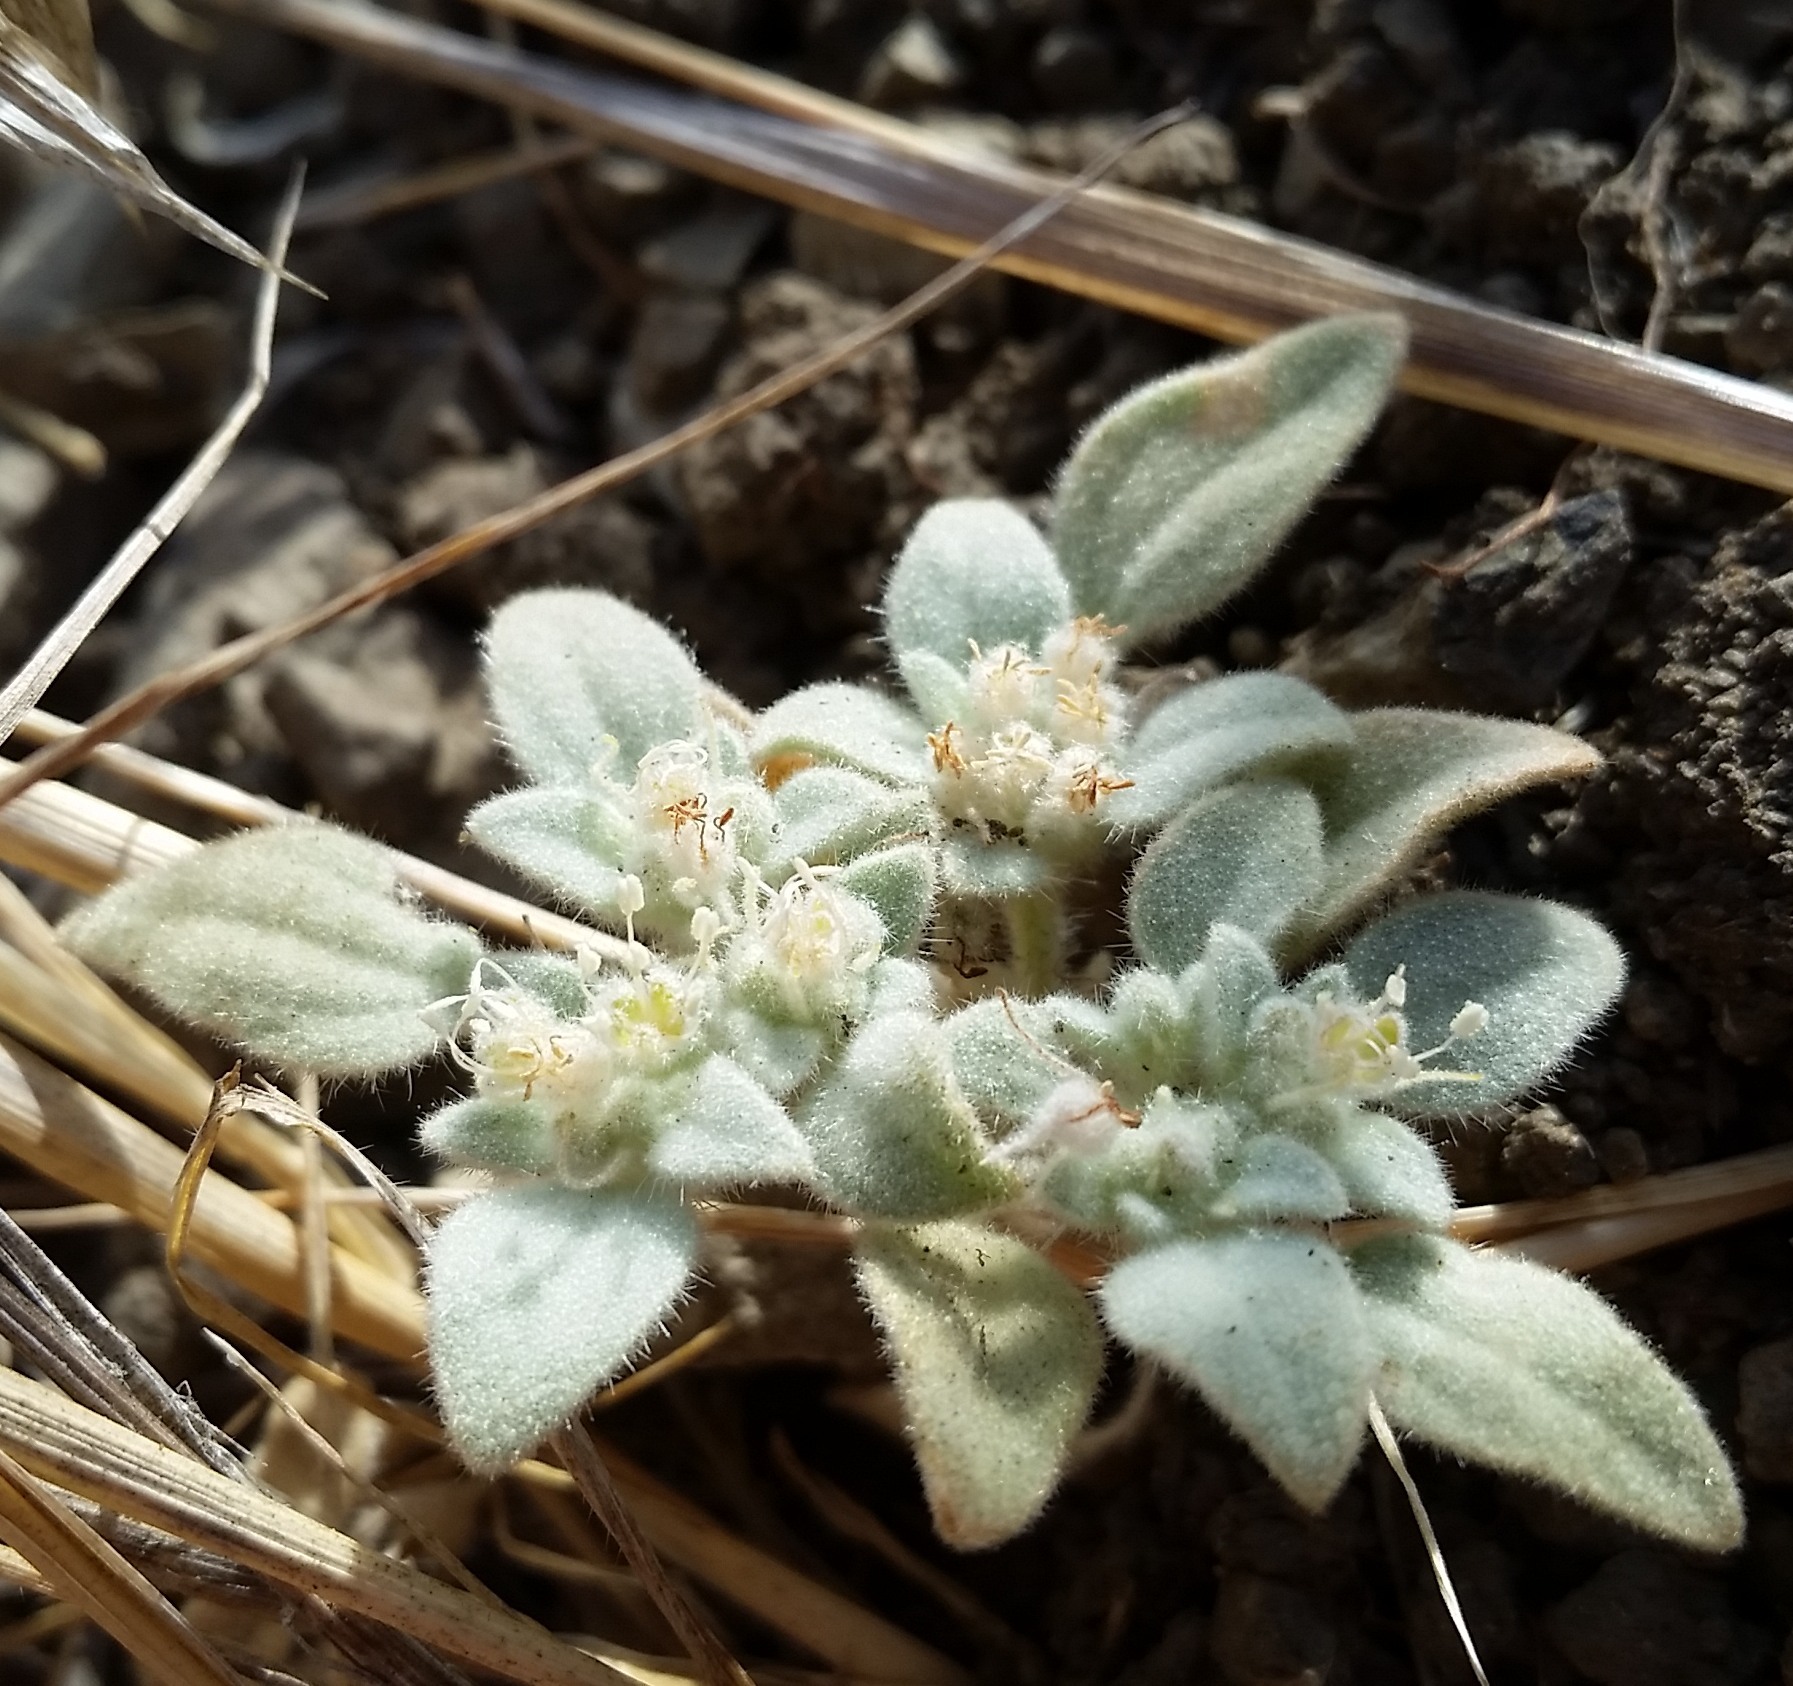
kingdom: Plantae
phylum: Tracheophyta
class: Magnoliopsida
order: Malpighiales
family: Euphorbiaceae
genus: Croton
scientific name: Croton setiger
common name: Dove weed
